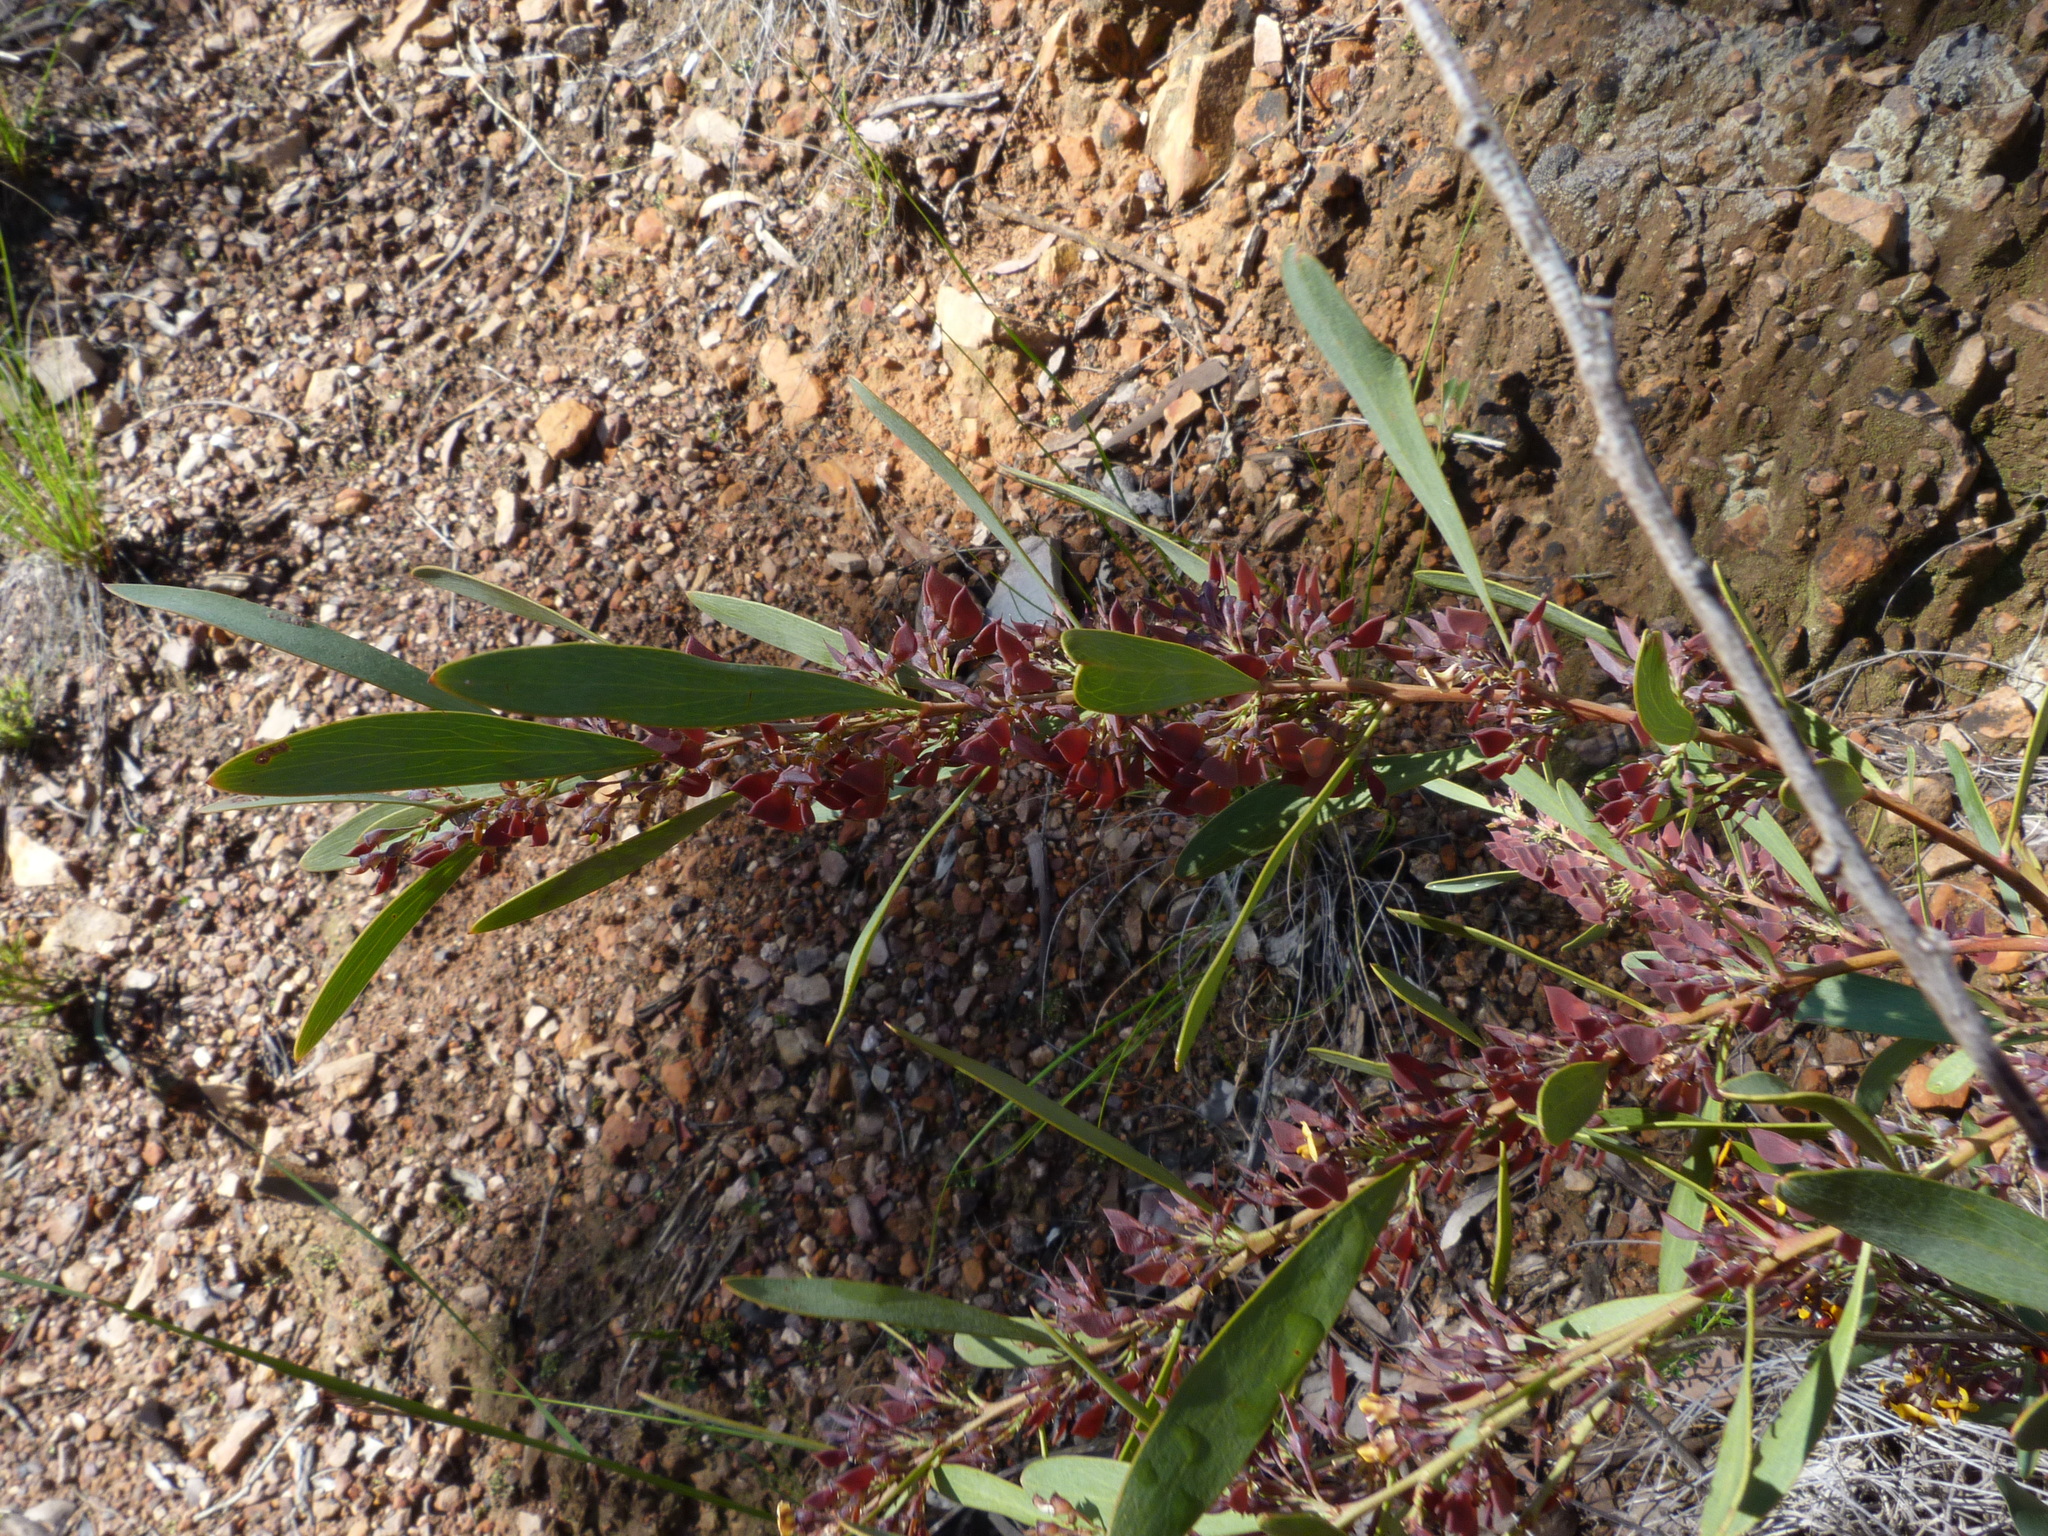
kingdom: Plantae
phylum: Tracheophyta
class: Magnoliopsida
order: Fabales
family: Fabaceae
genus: Daviesia
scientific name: Daviesia mimosoides
